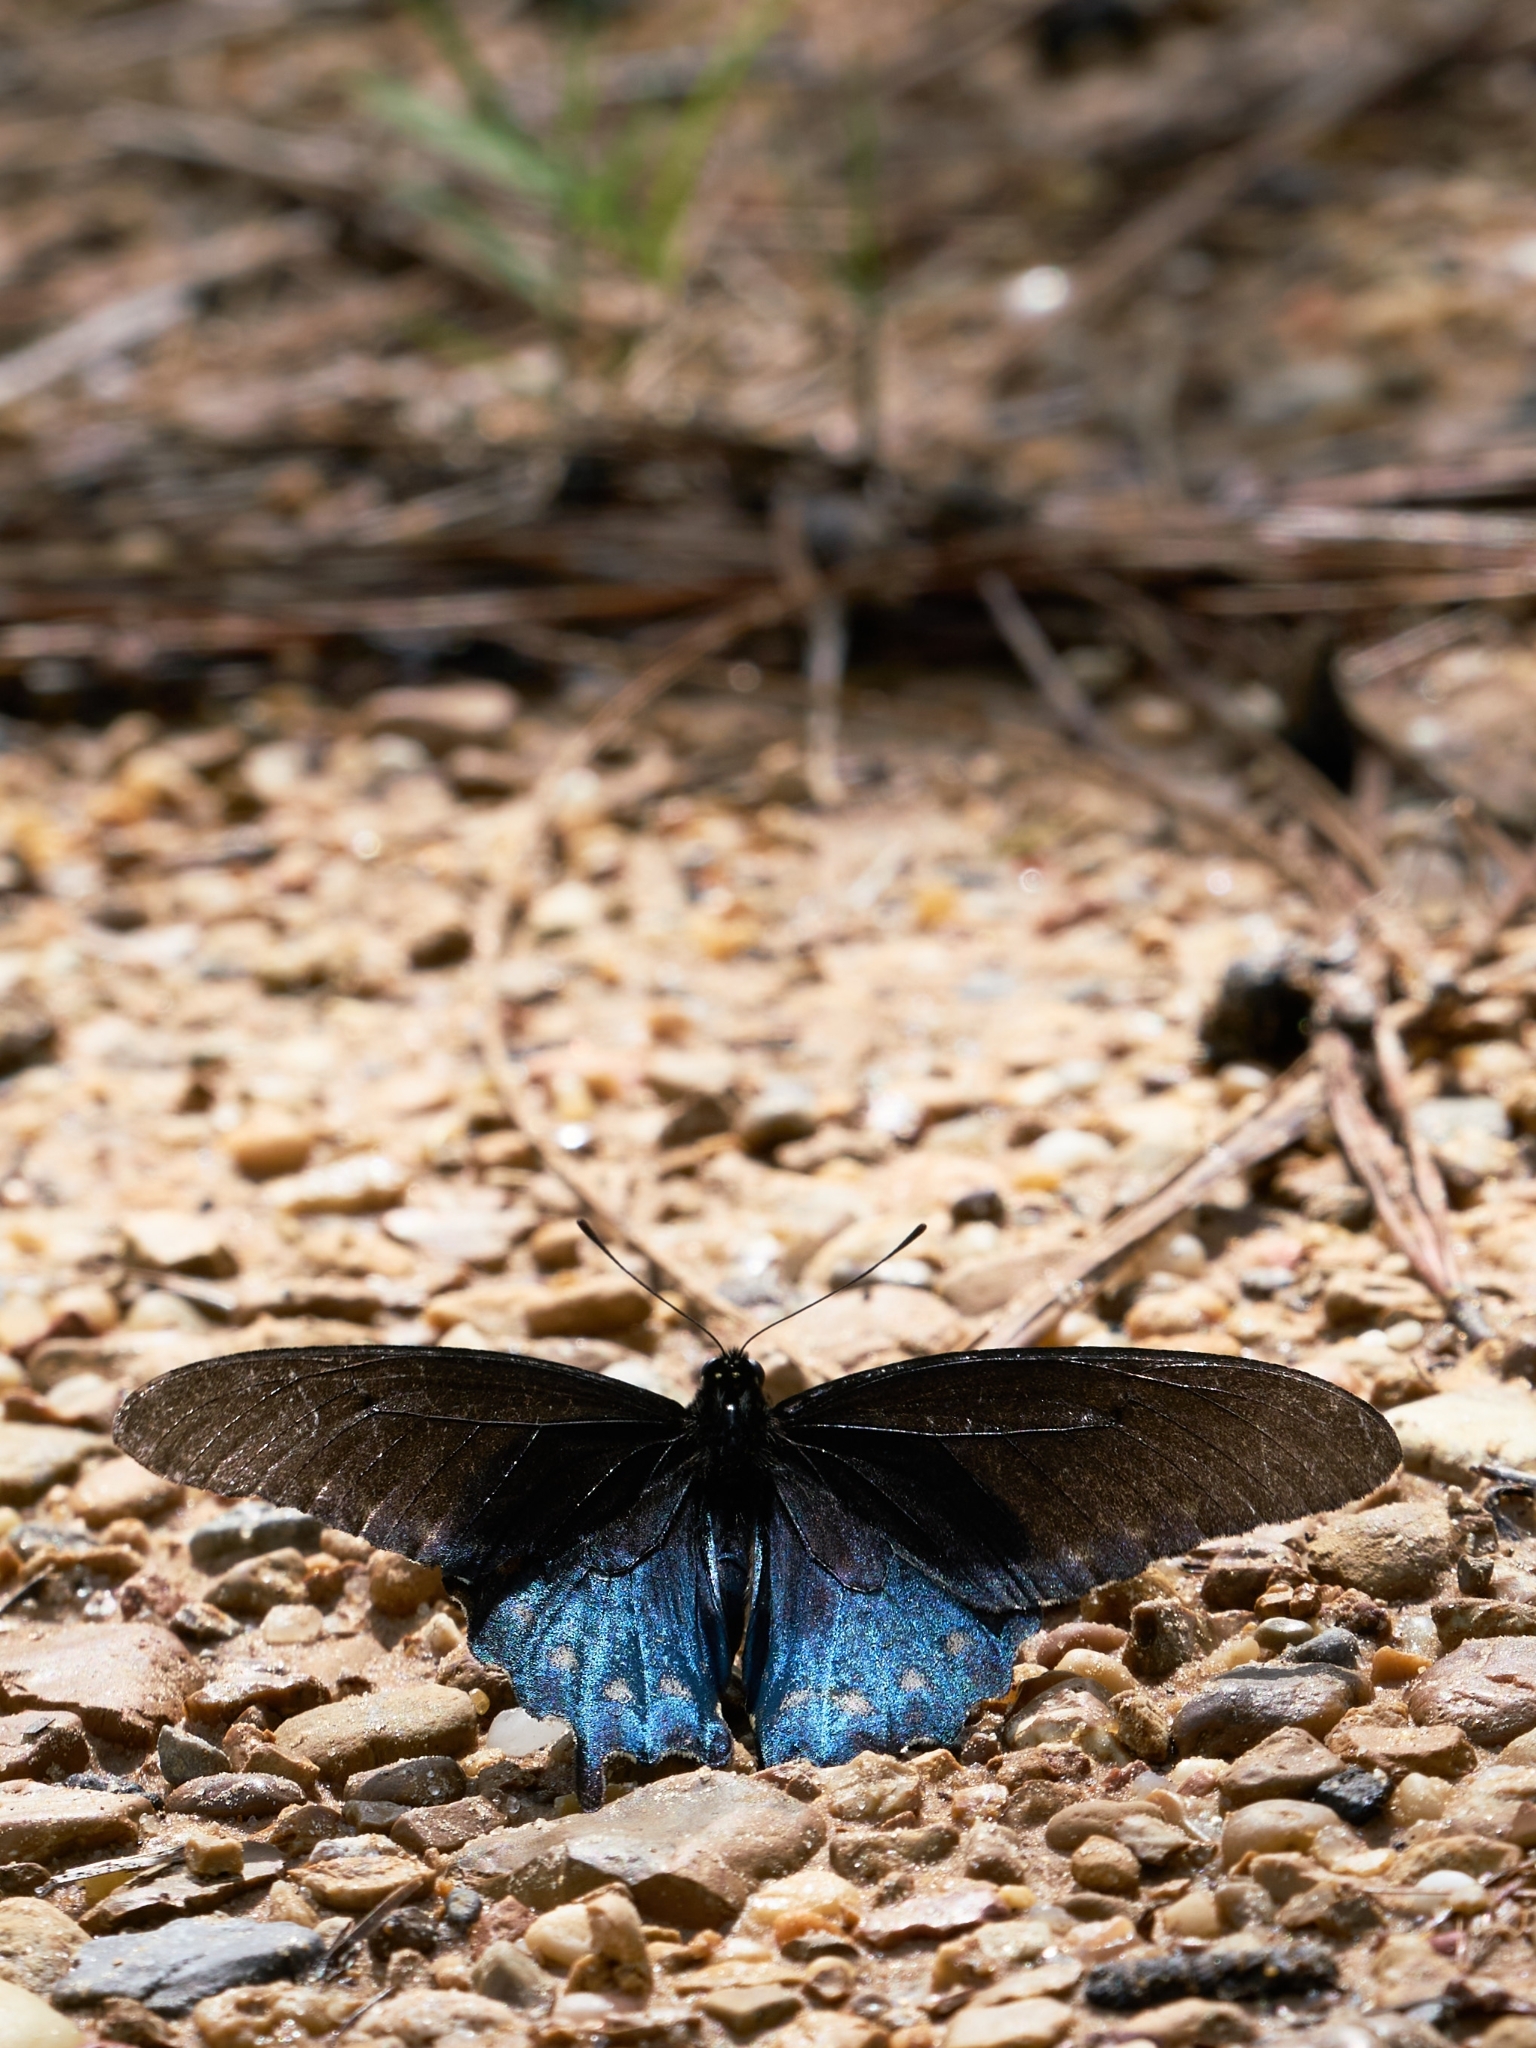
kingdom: Animalia
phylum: Arthropoda
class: Insecta
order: Lepidoptera
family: Papilionidae
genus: Battus
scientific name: Battus philenor
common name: Pipevine swallowtail
